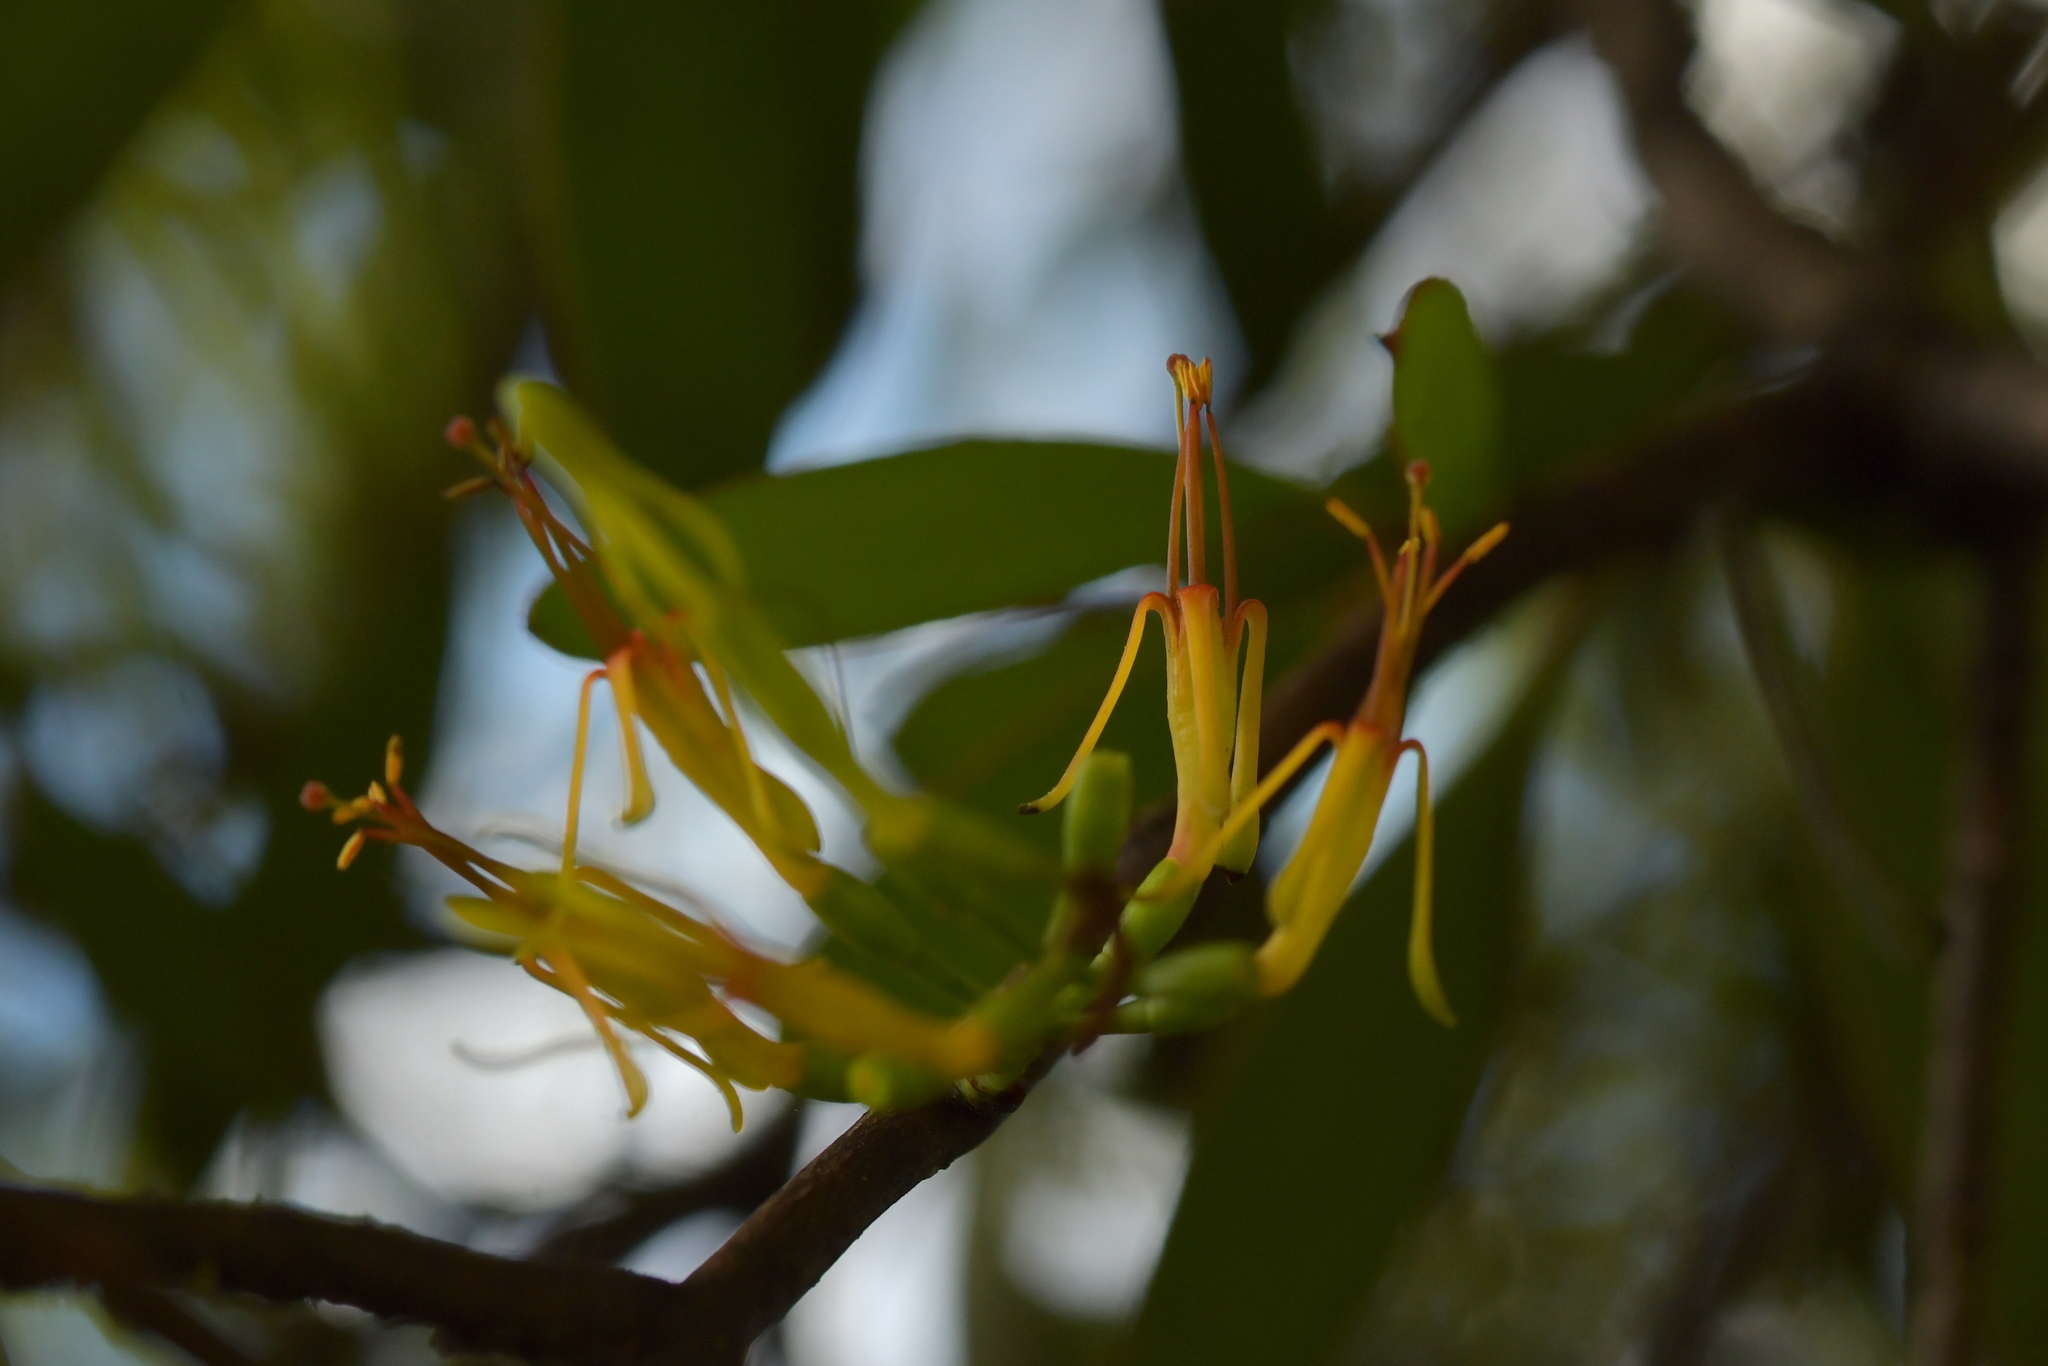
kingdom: Plantae
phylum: Tracheophyta
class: Magnoliopsida
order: Santalales
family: Loranthaceae
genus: Alepis
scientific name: Alepis flavida
